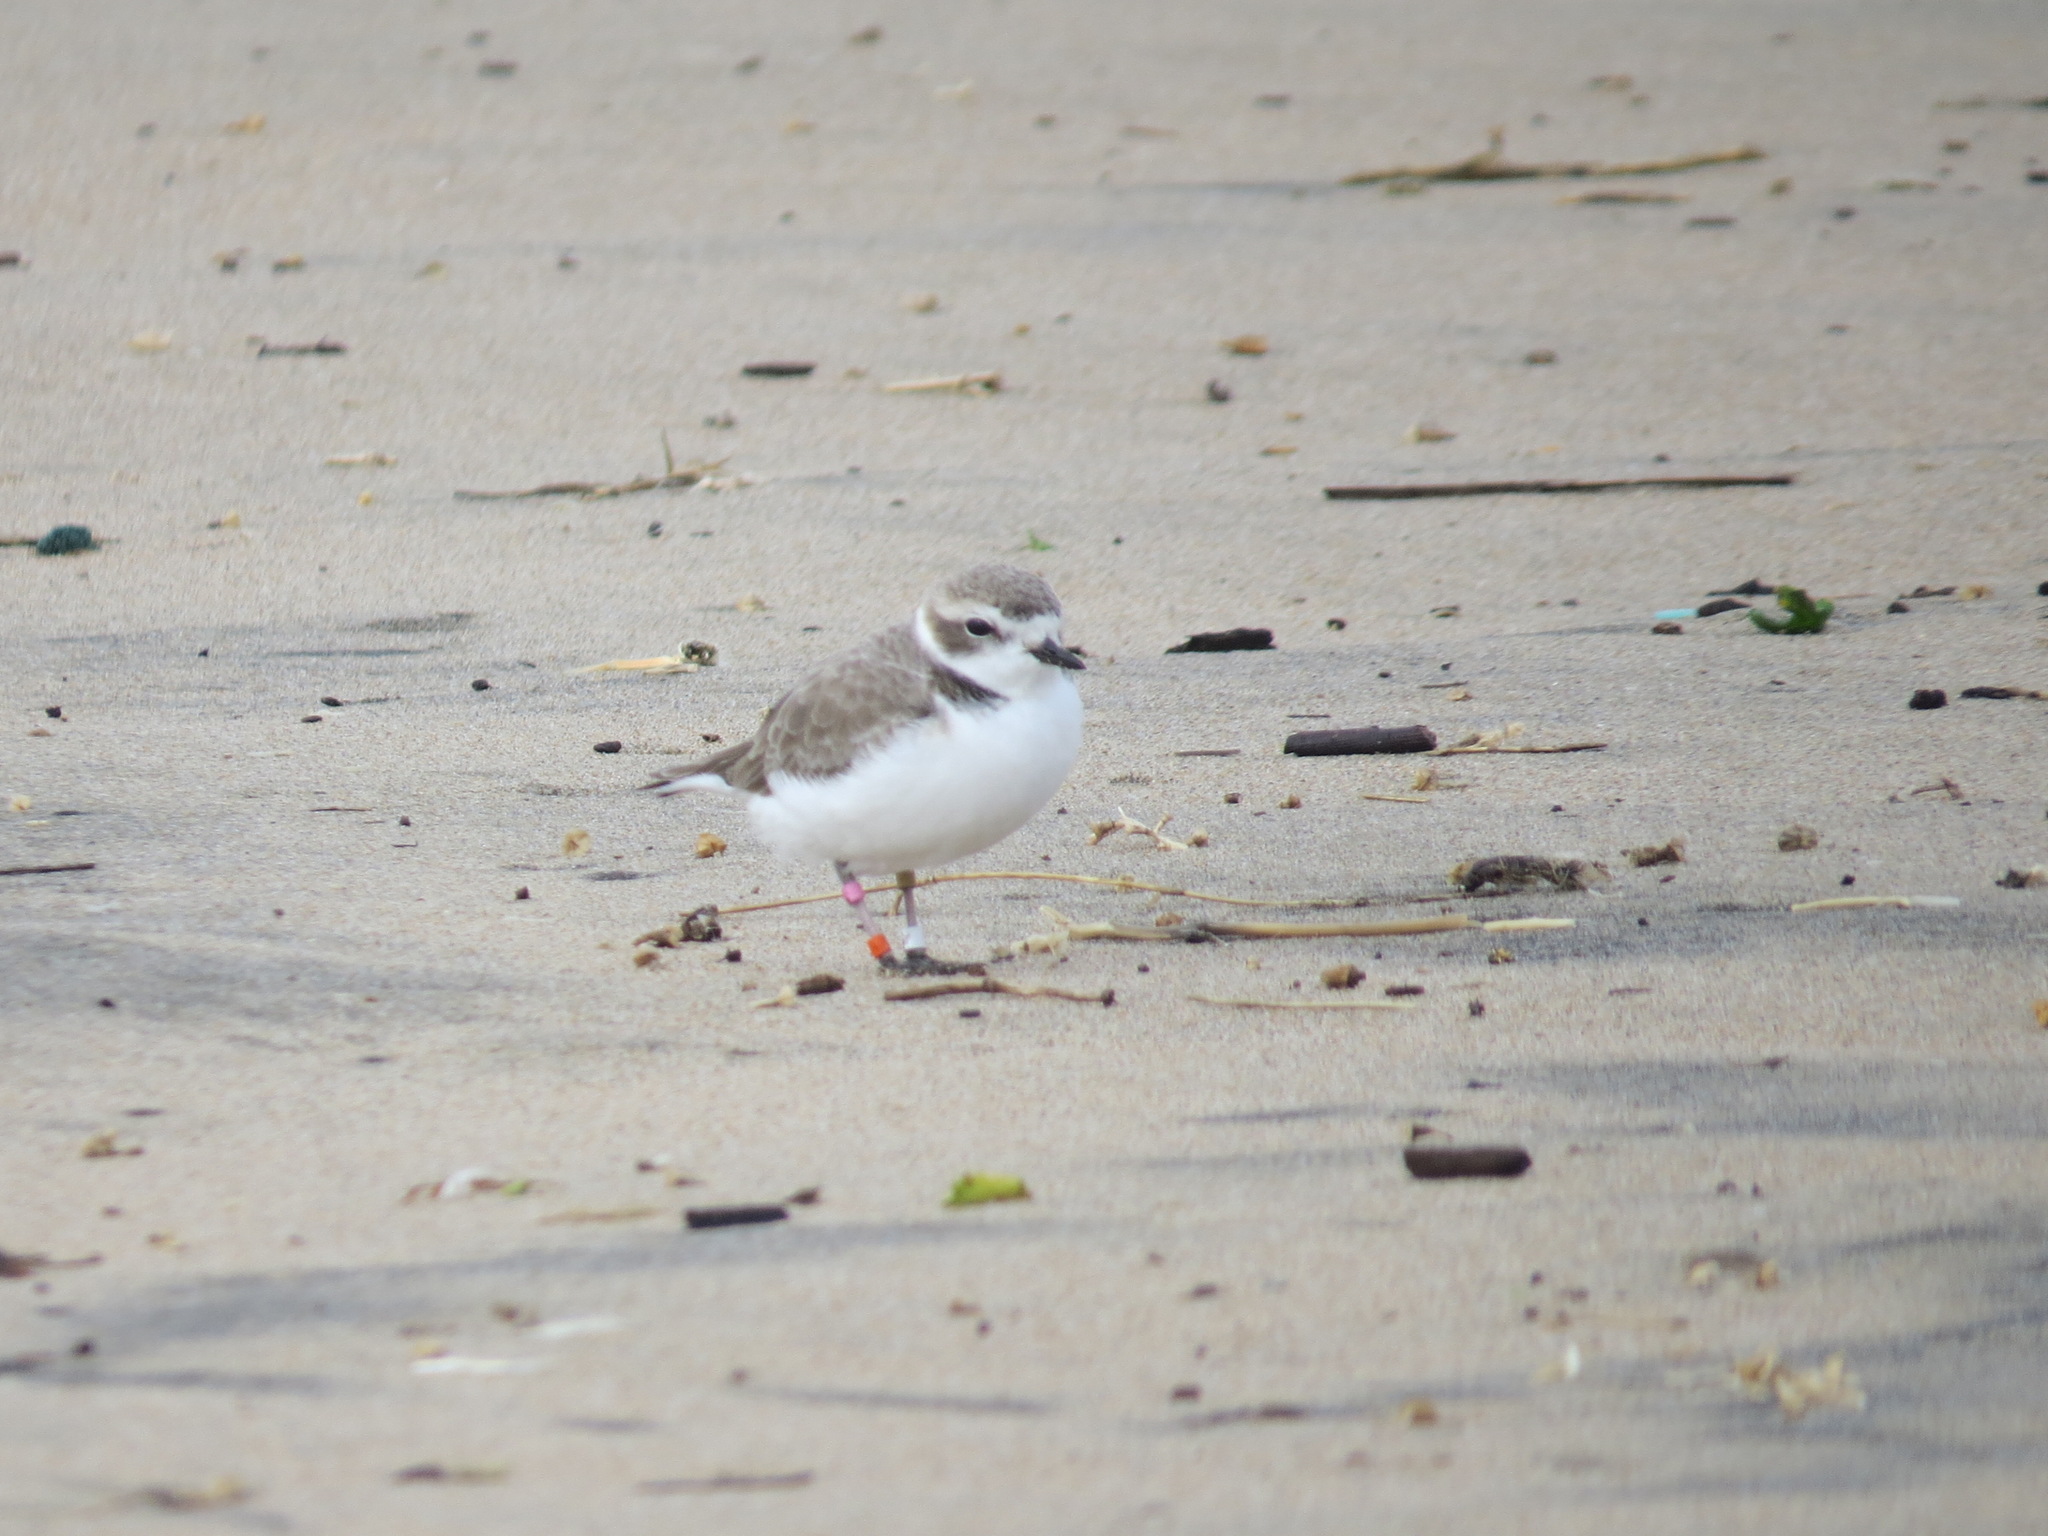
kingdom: Animalia
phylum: Chordata
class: Aves
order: Charadriiformes
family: Charadriidae
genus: Anarhynchus
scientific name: Anarhynchus
